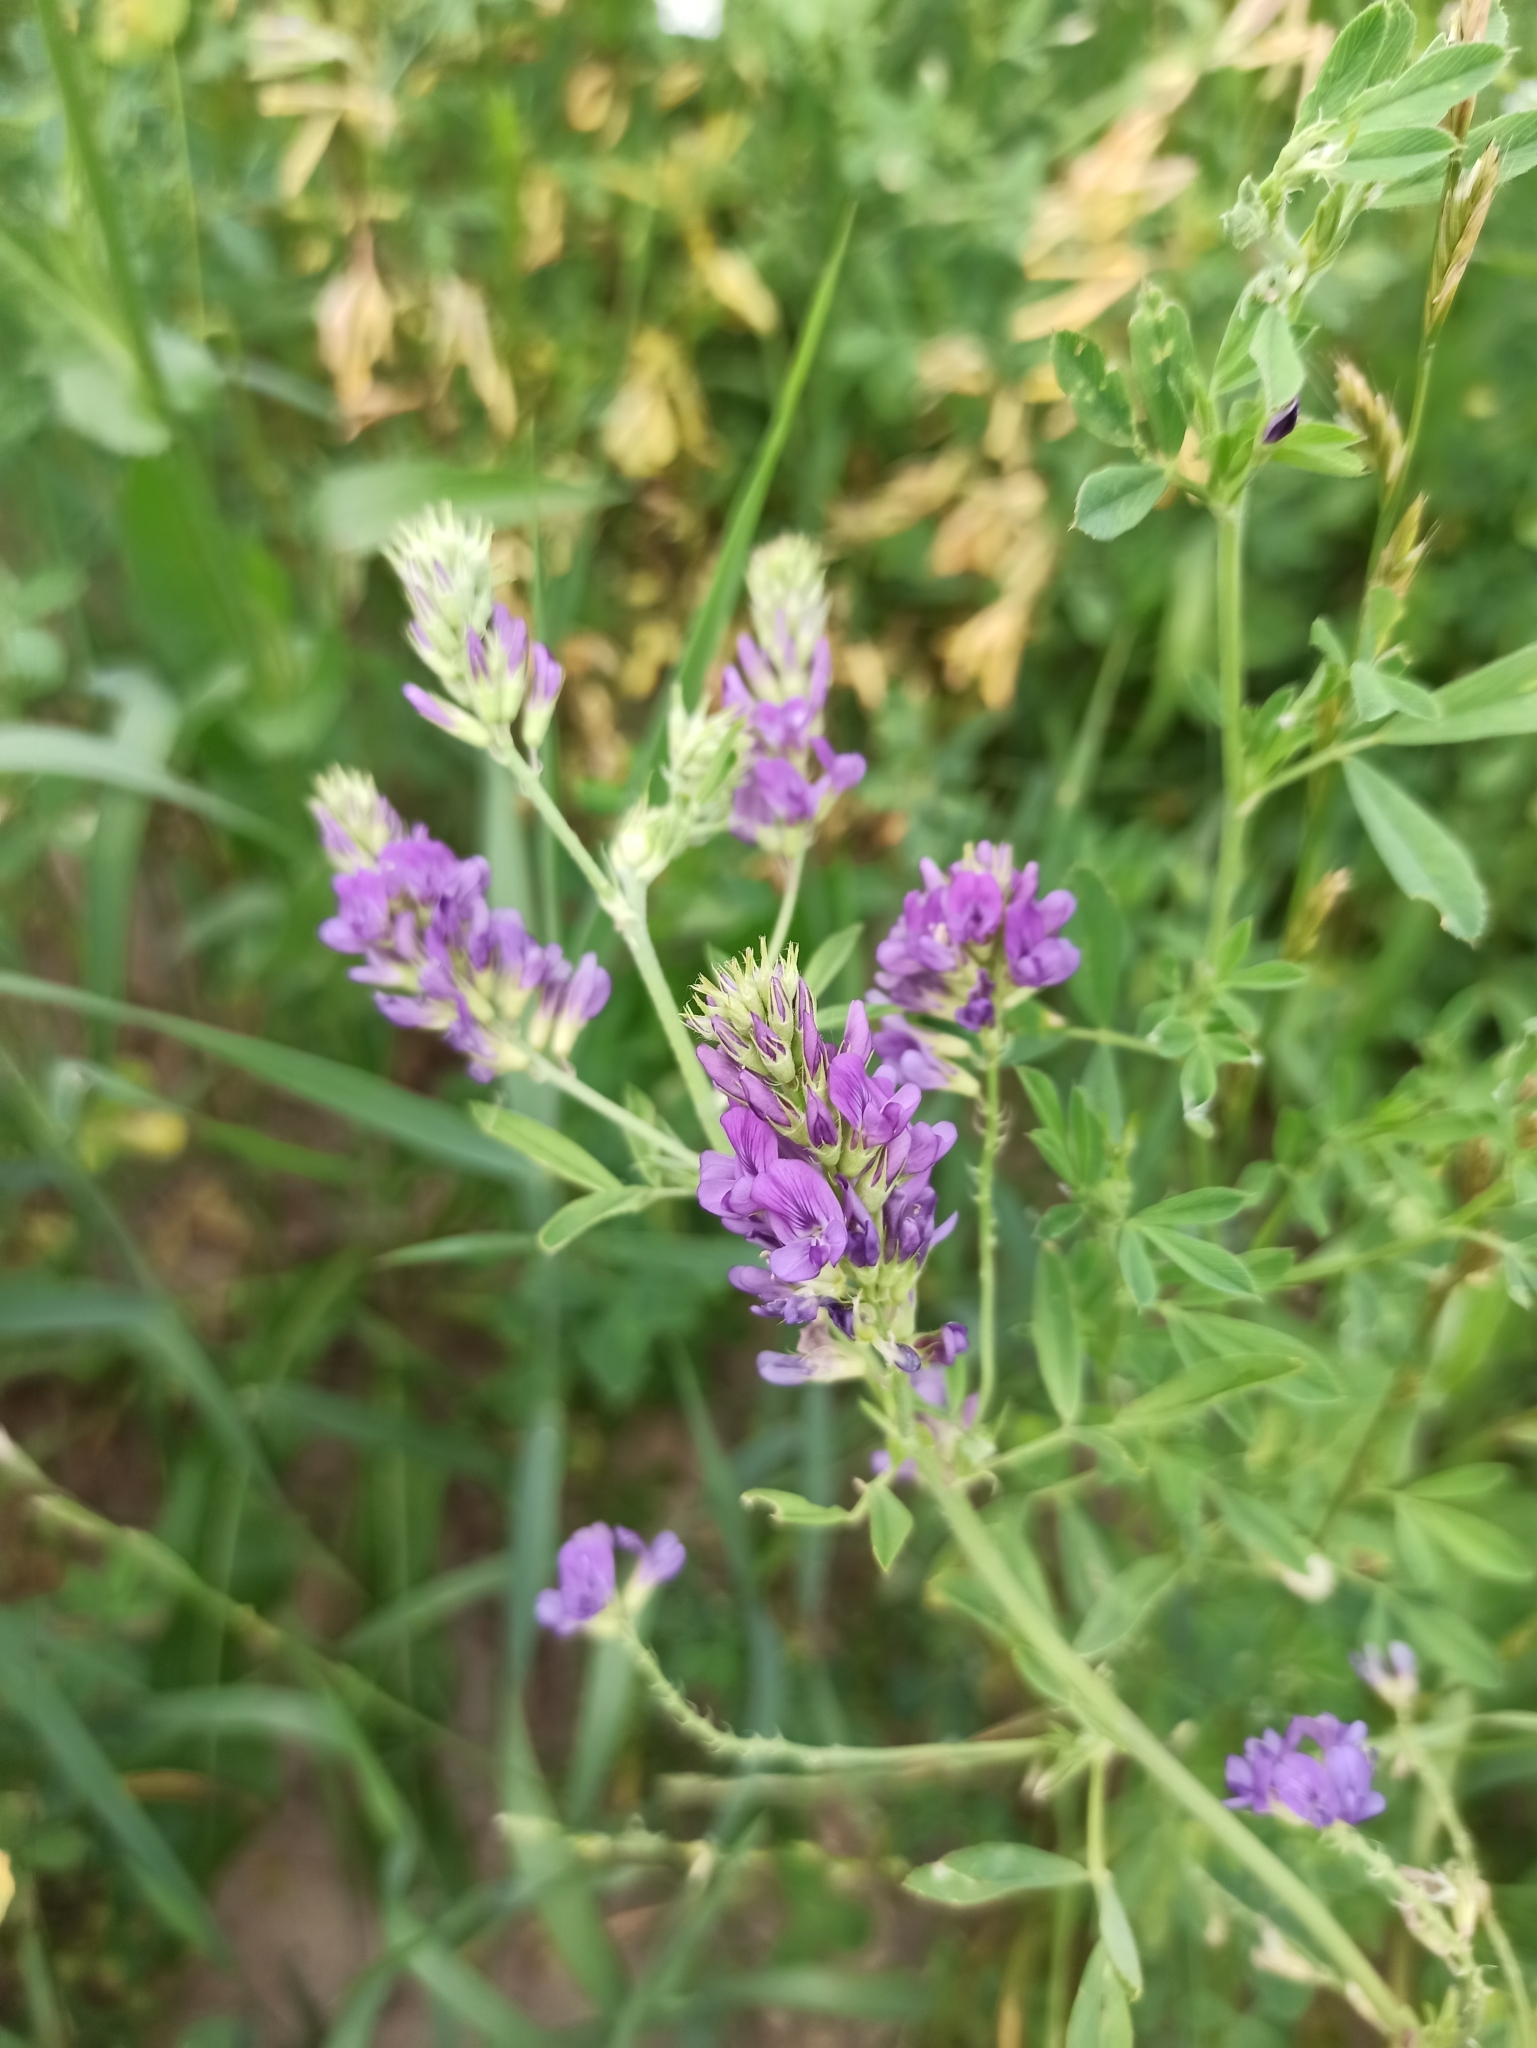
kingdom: Plantae
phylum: Tracheophyta
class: Magnoliopsida
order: Fabales
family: Fabaceae
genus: Medicago
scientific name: Medicago sativa
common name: Alfalfa
